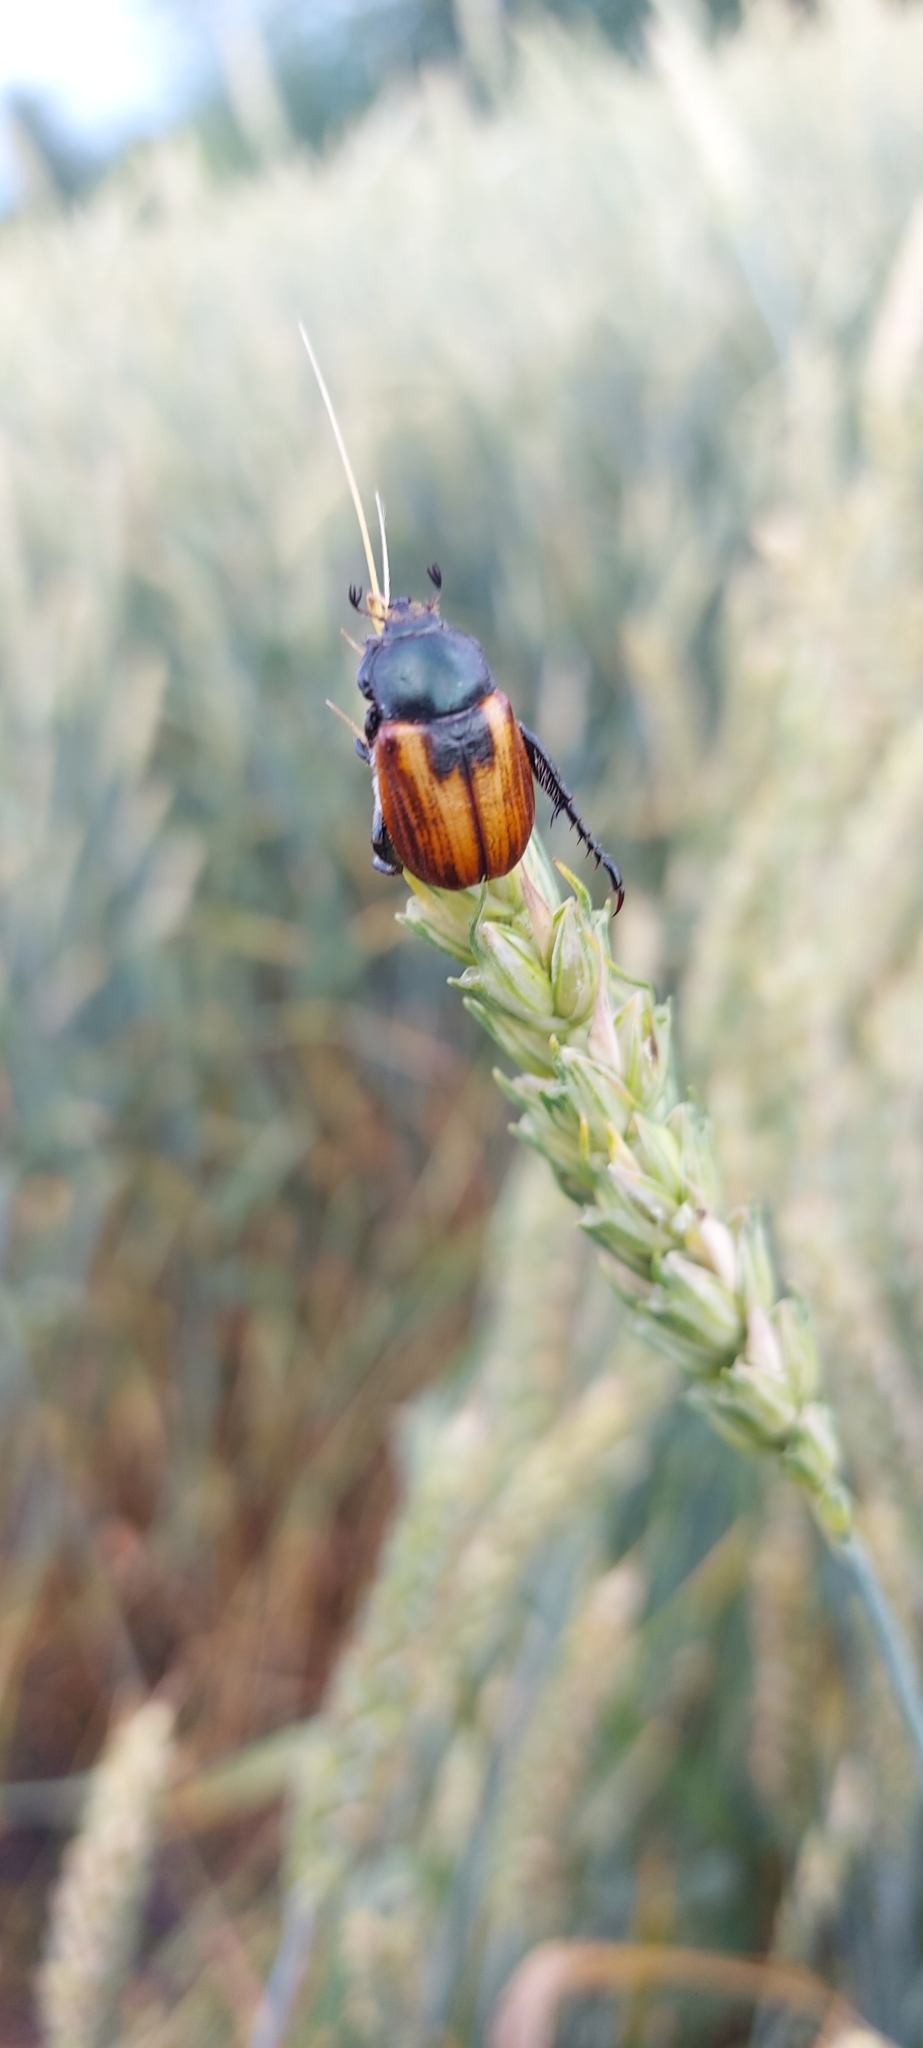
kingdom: Animalia
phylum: Arthropoda
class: Insecta
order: Coleoptera
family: Scarabaeidae
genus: Anisoplia
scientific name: Anisoplia austriaca
